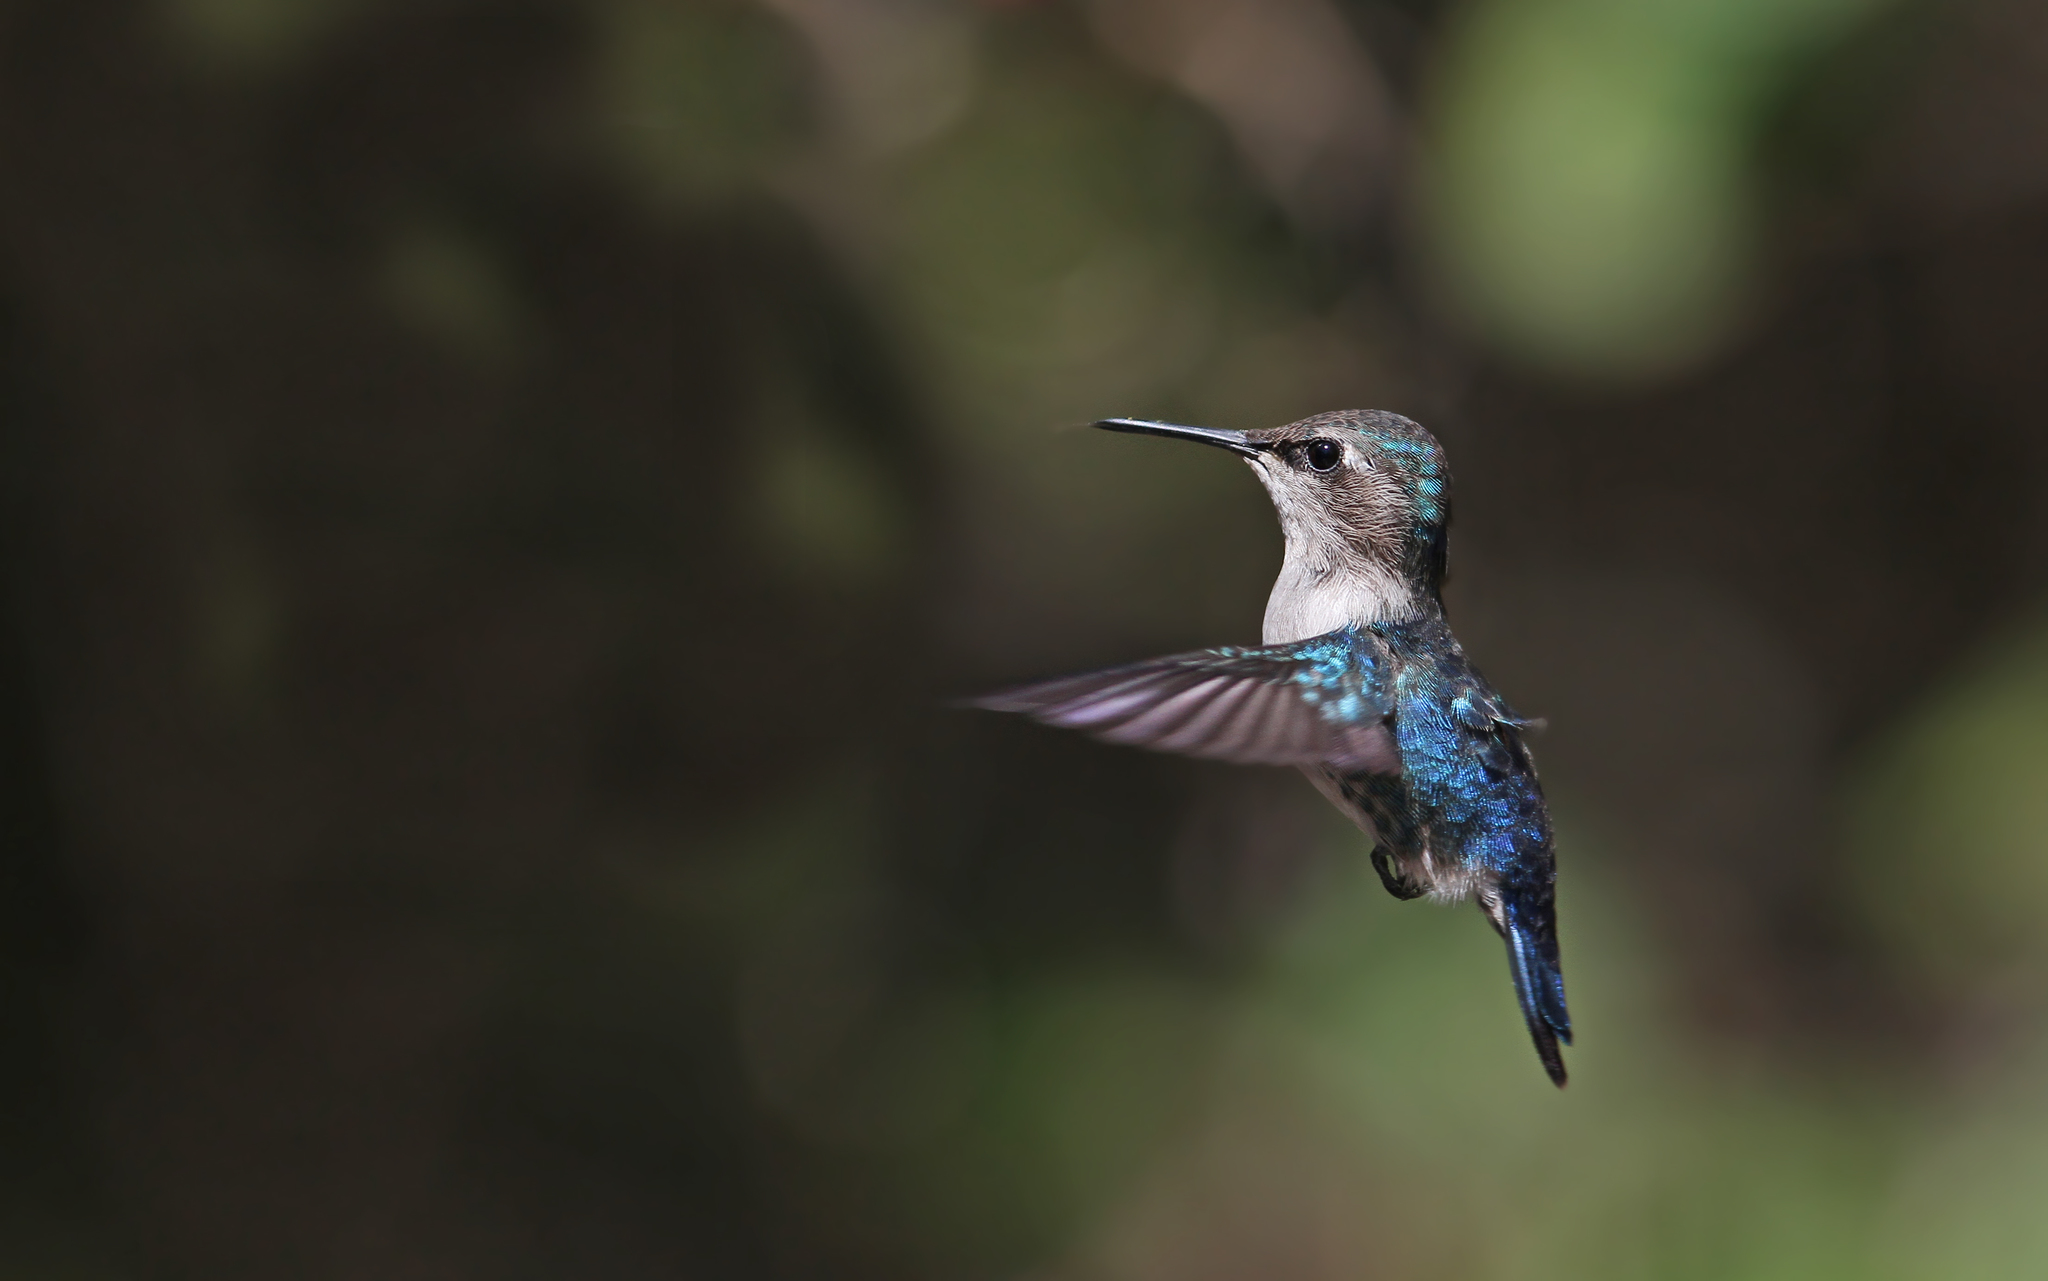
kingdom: Animalia
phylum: Chordata
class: Aves
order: Apodiformes
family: Trochilidae
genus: Mellisuga
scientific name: Mellisuga helenae
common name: Bee hummingbird
